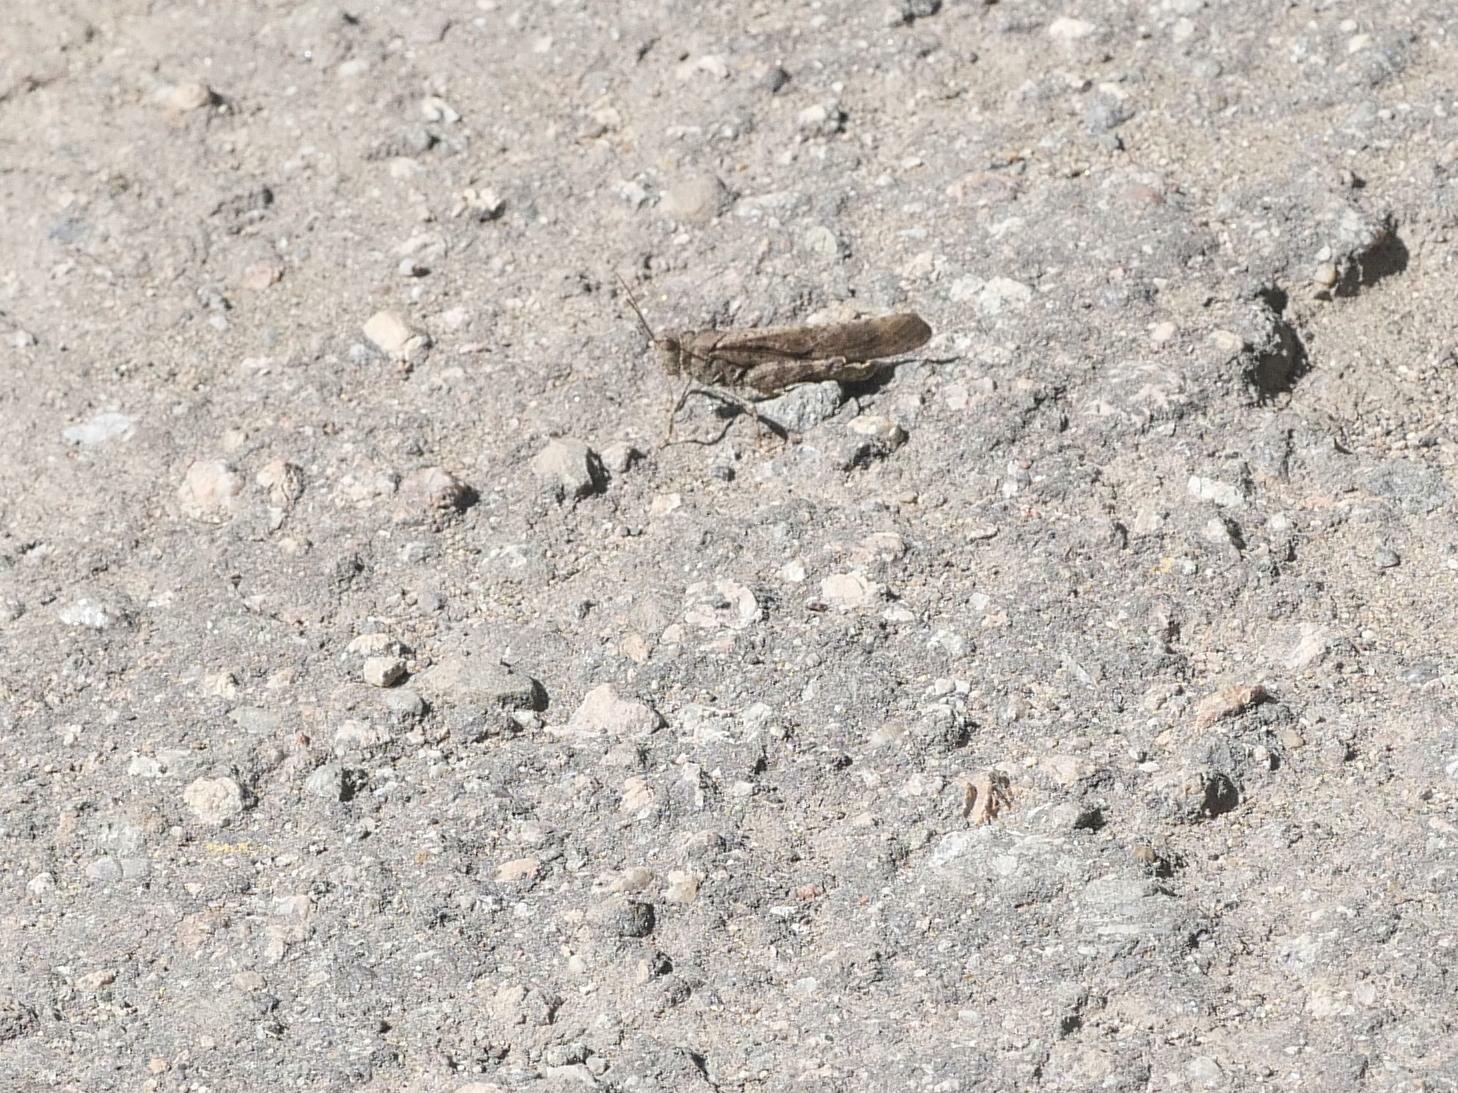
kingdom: Animalia
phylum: Arthropoda
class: Insecta
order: Orthoptera
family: Acrididae
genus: Dissosteira
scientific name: Dissosteira carolina
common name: Carolina grasshopper
